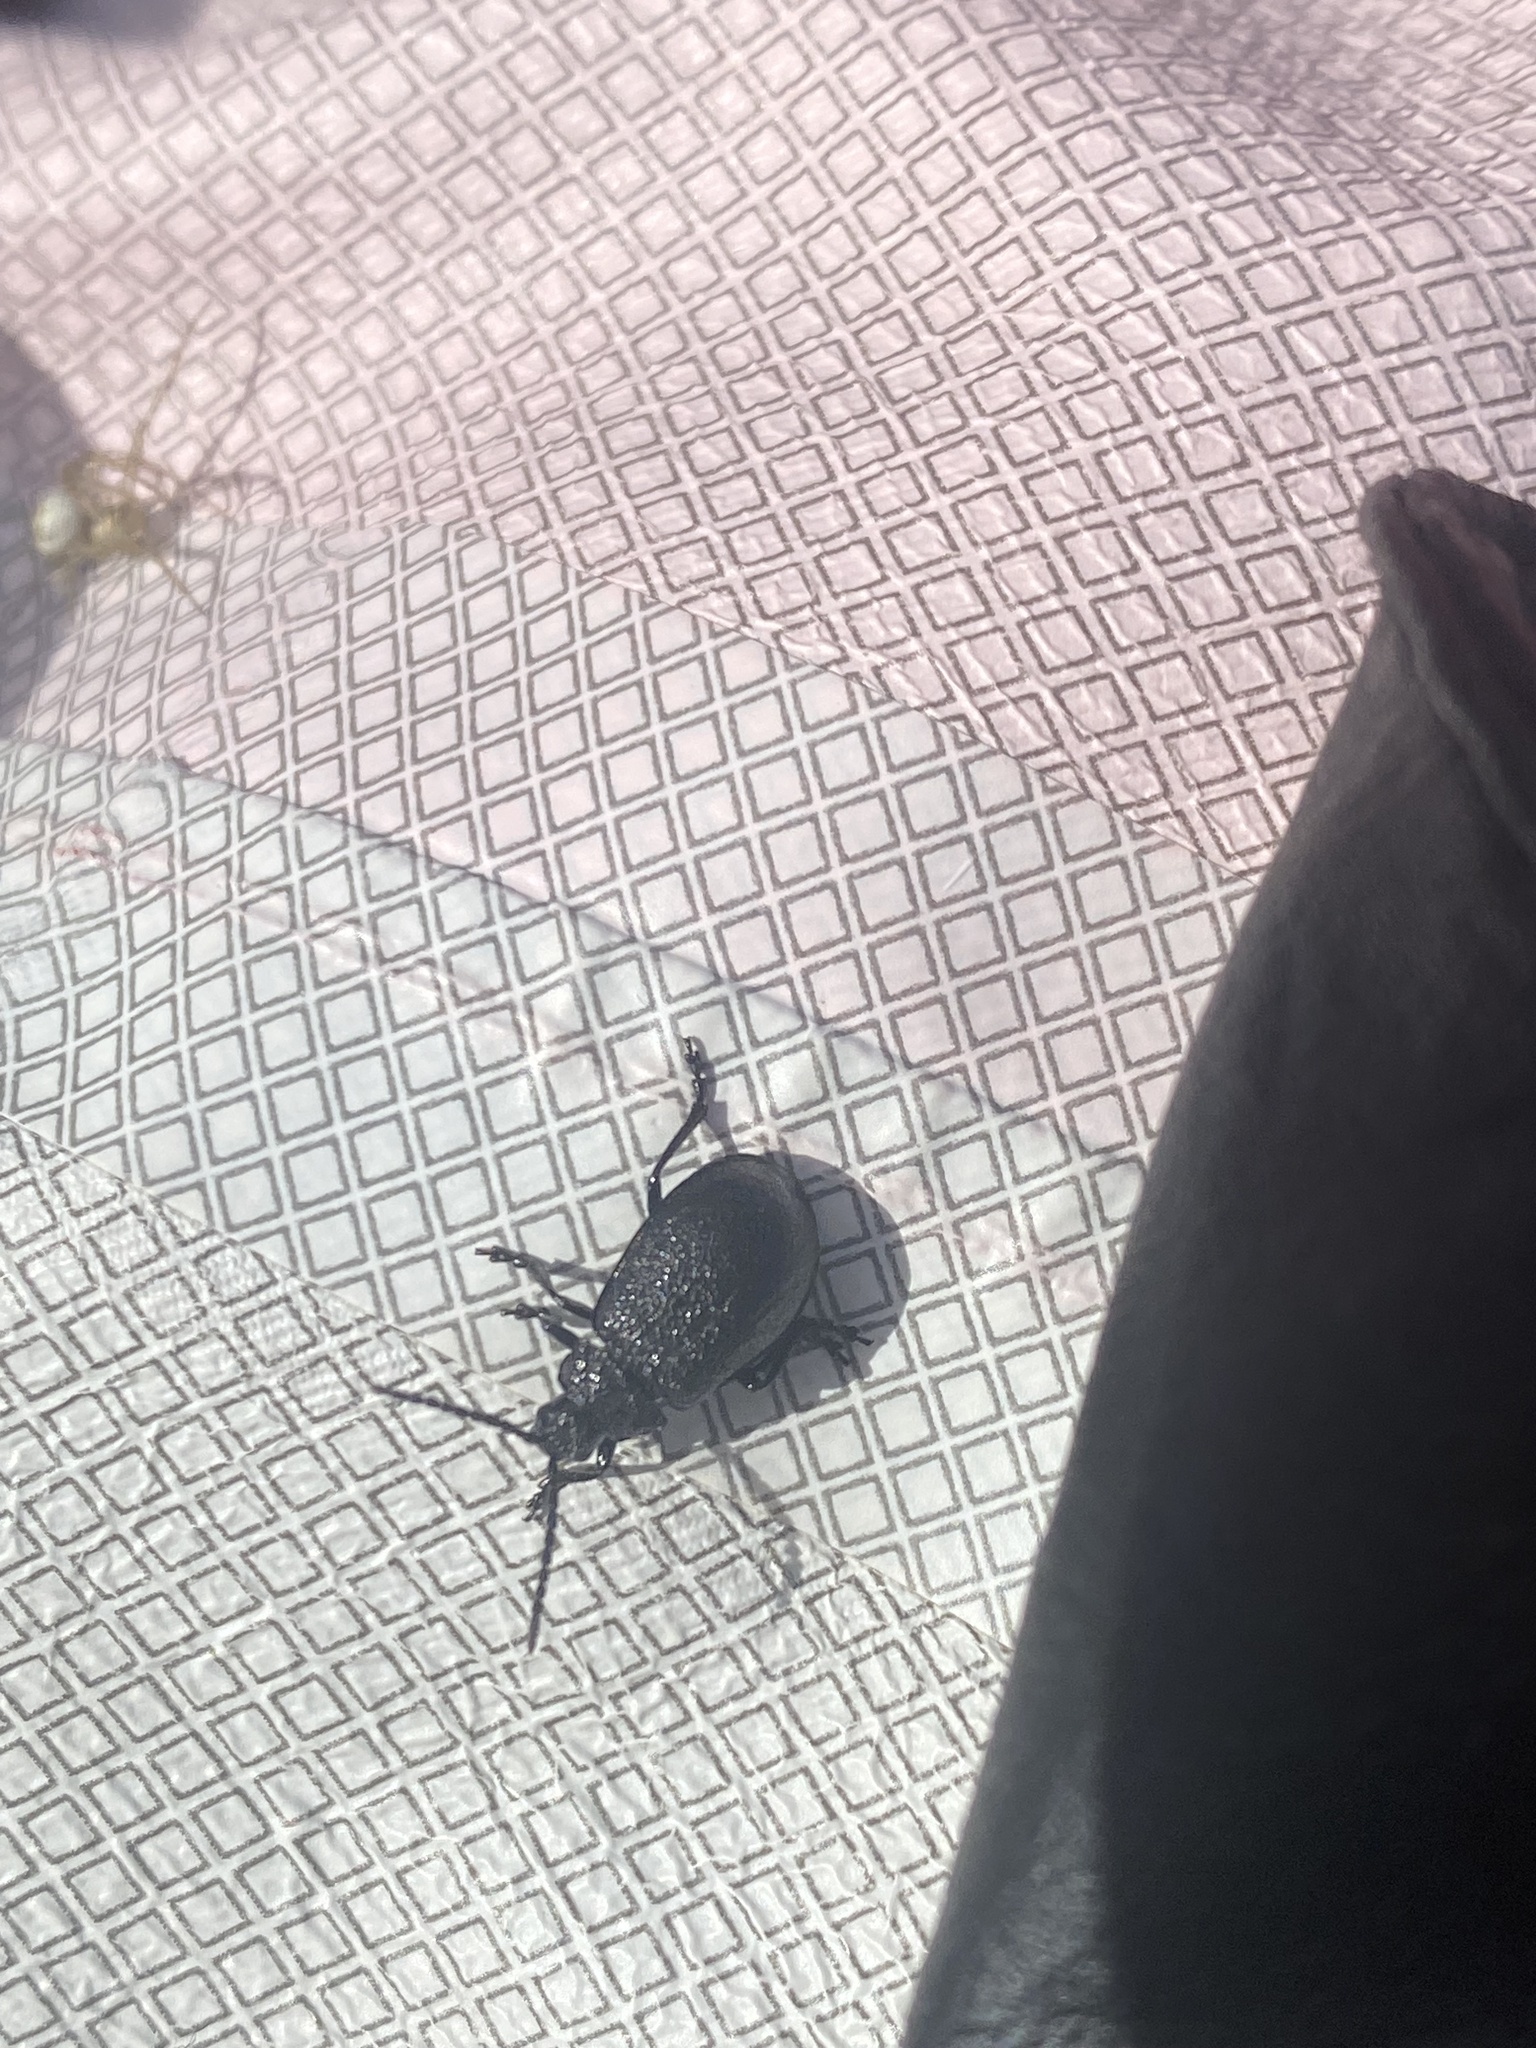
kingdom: Animalia
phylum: Arthropoda
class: Insecta
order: Coleoptera
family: Chrysomelidae
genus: Galeruca
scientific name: Galeruca tanaceti
